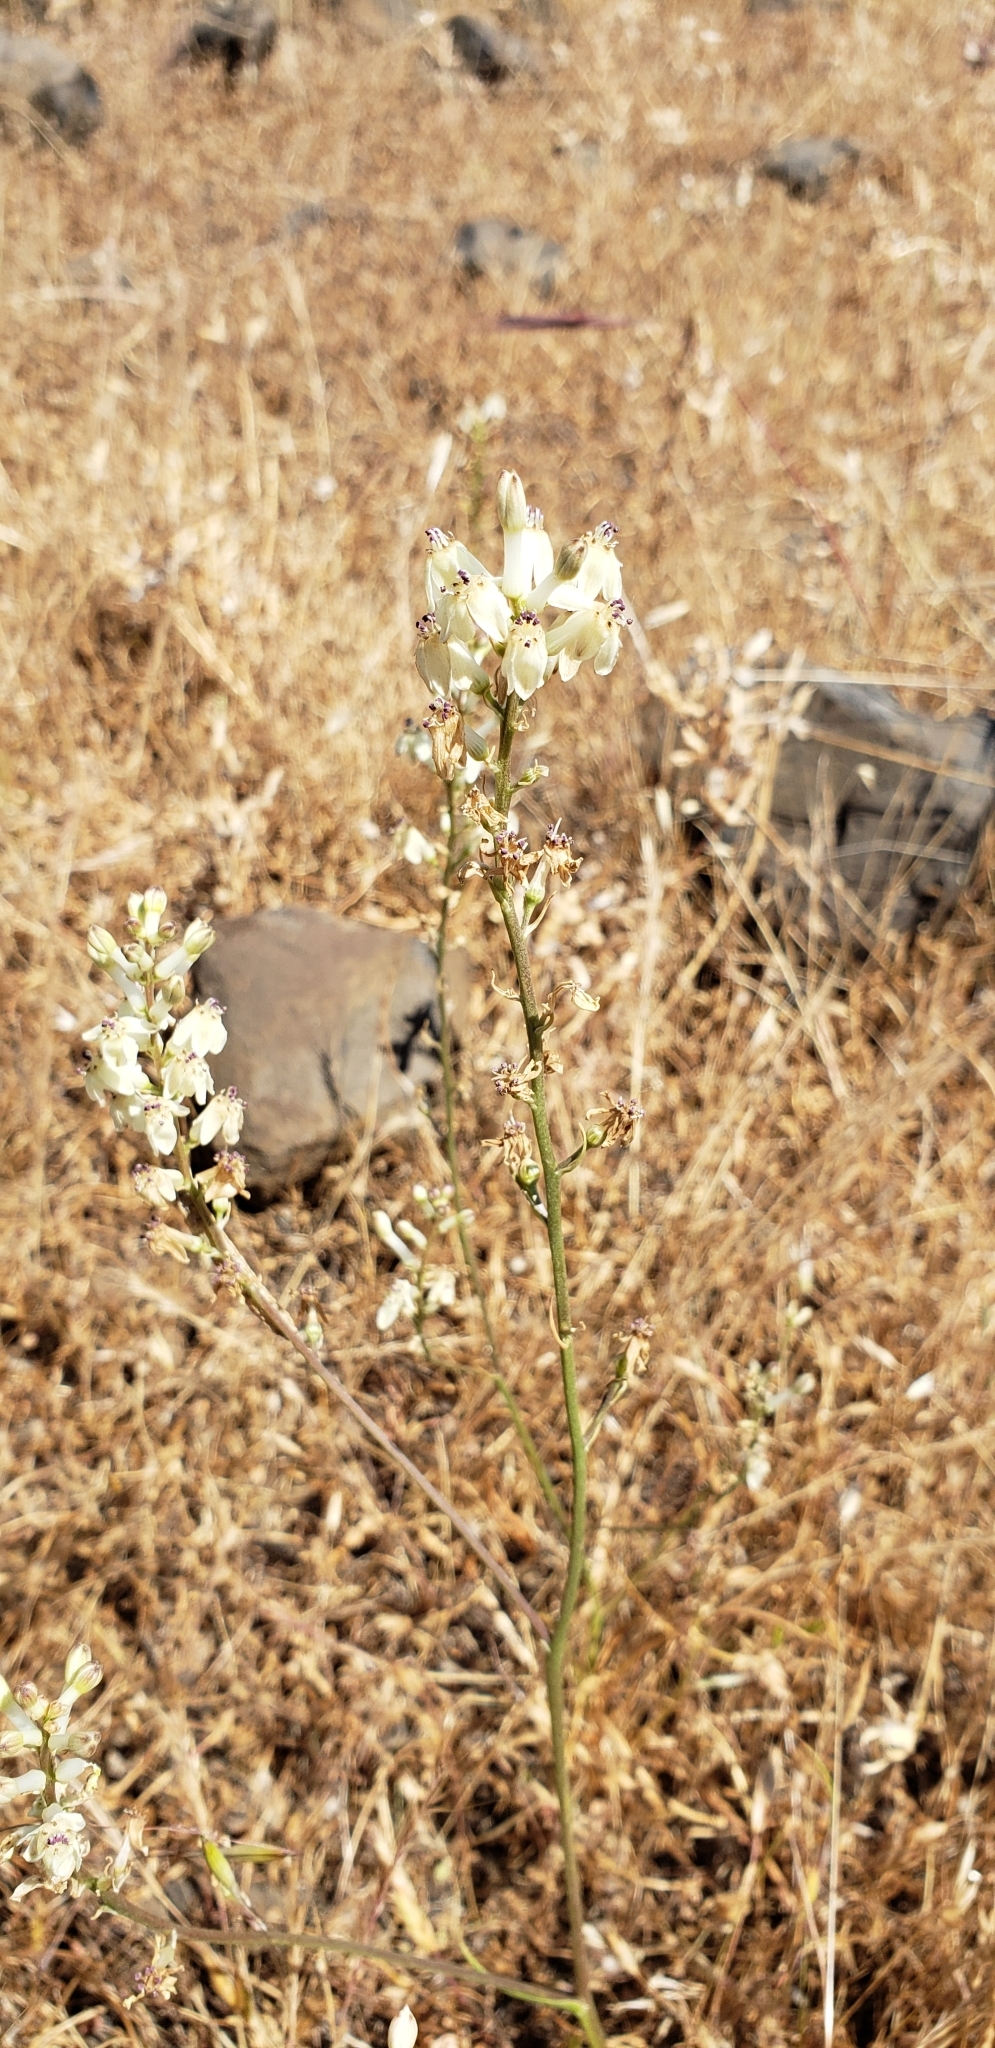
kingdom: Plantae
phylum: Tracheophyta
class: Liliopsida
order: Asparagales
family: Tecophilaeaceae
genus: Odontostomum
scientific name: Odontostomum hartwegii
